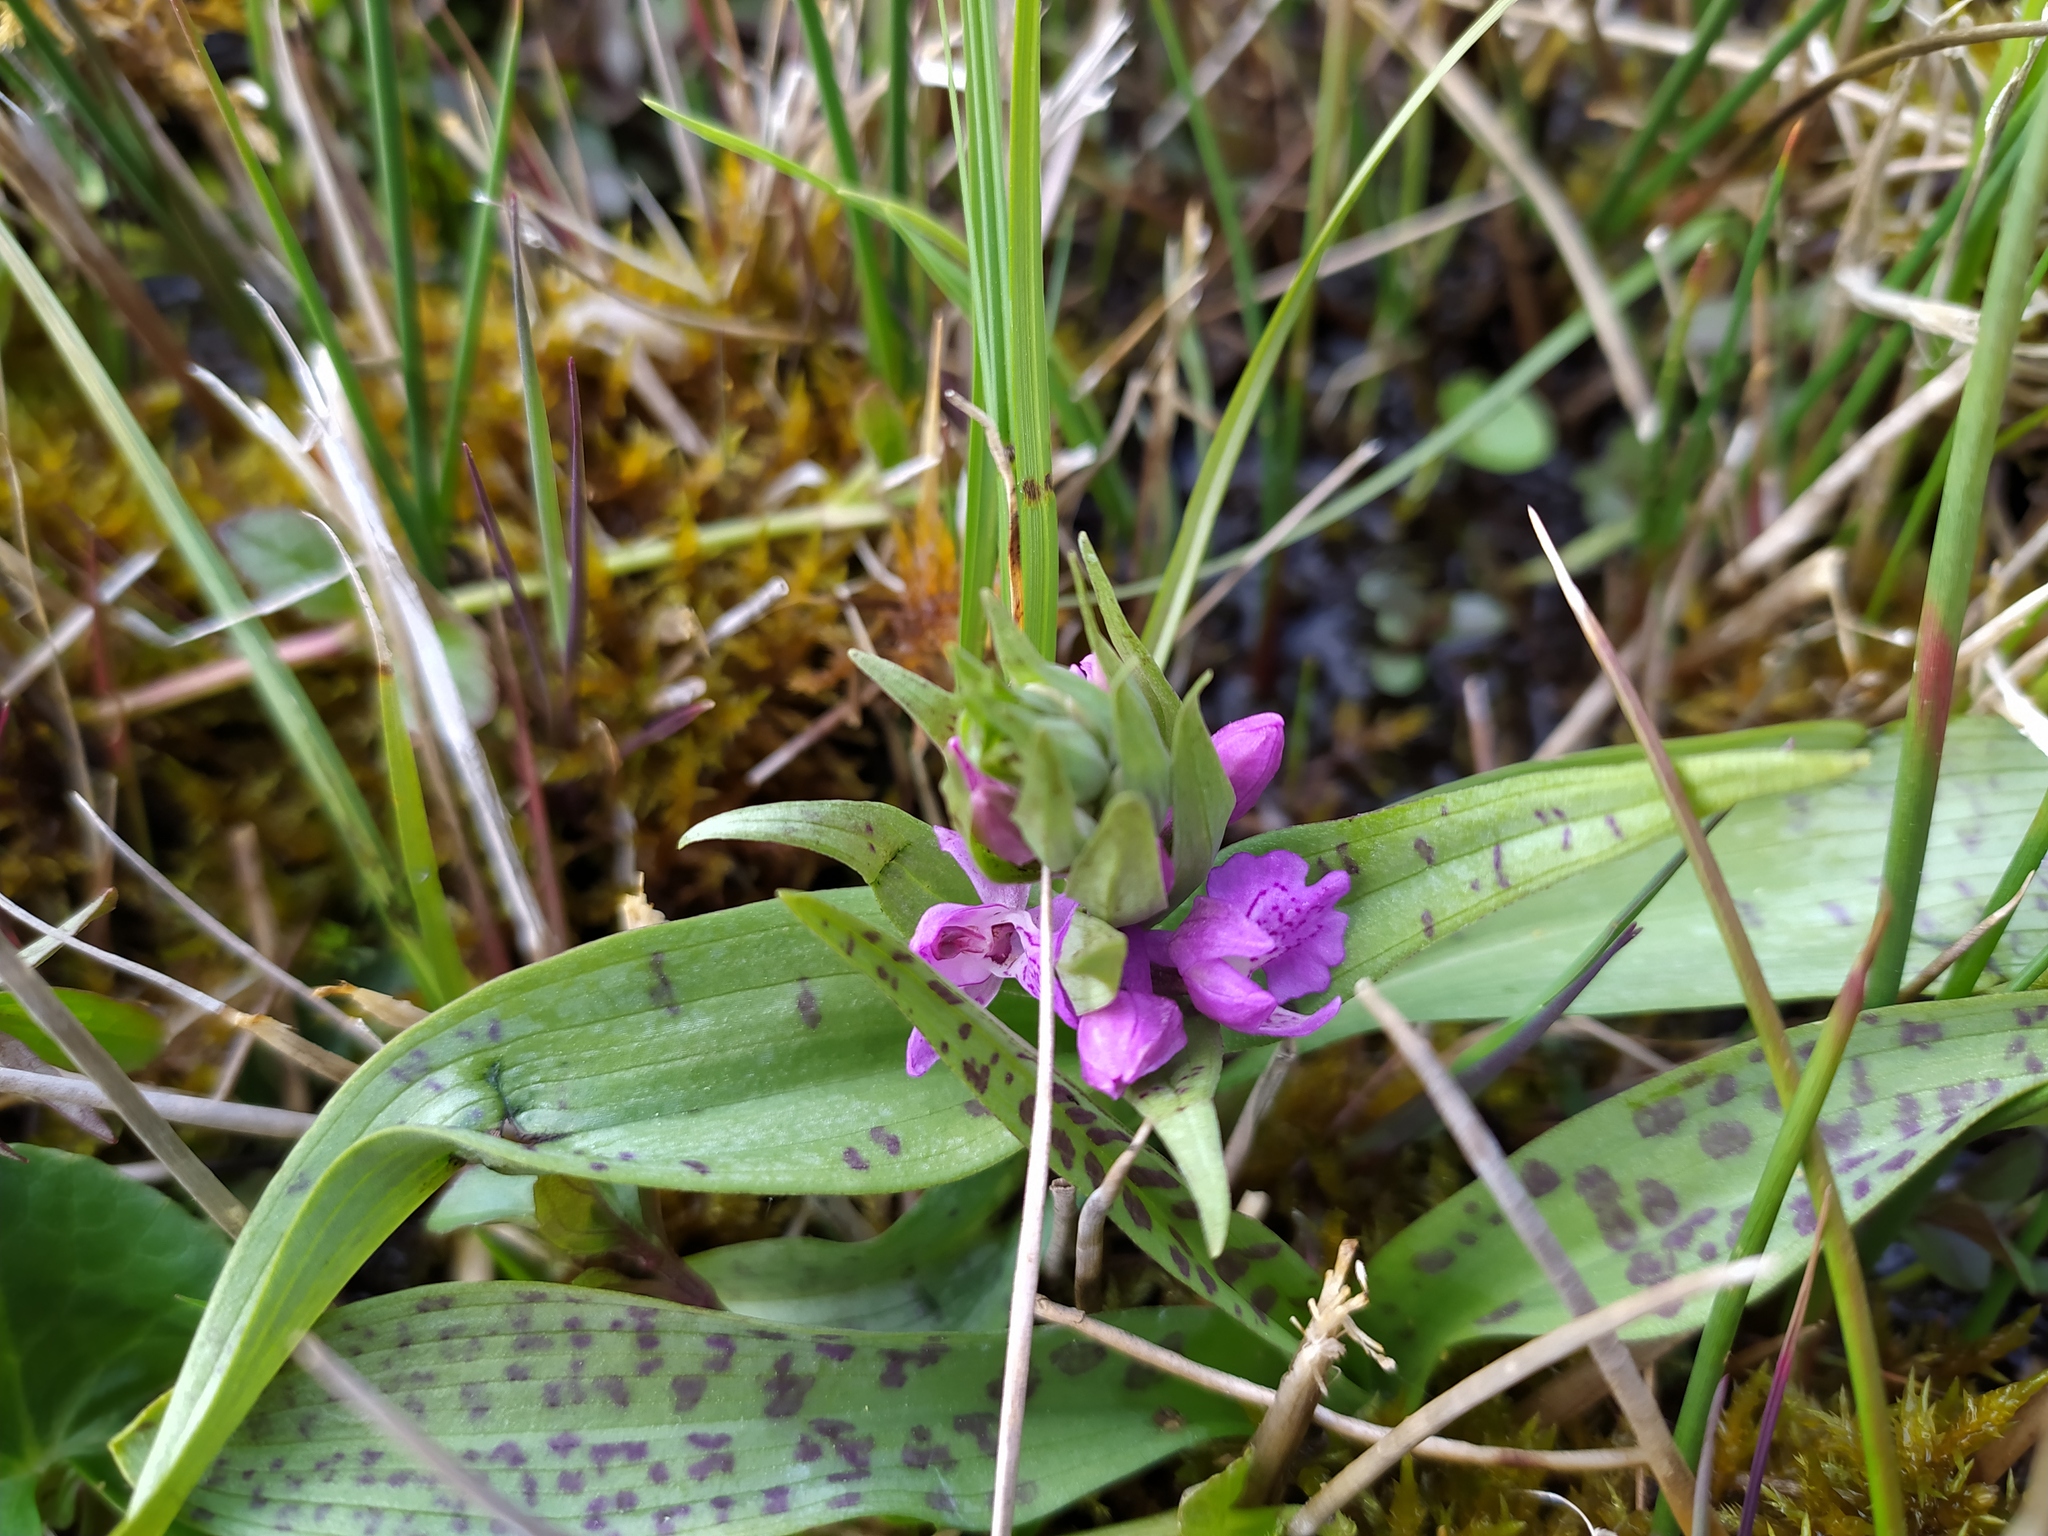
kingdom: Plantae
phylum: Tracheophyta
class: Liliopsida
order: Asparagales
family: Orchidaceae
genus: Dactylorhiza
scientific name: Dactylorhiza majalis
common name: Marsh orchid
